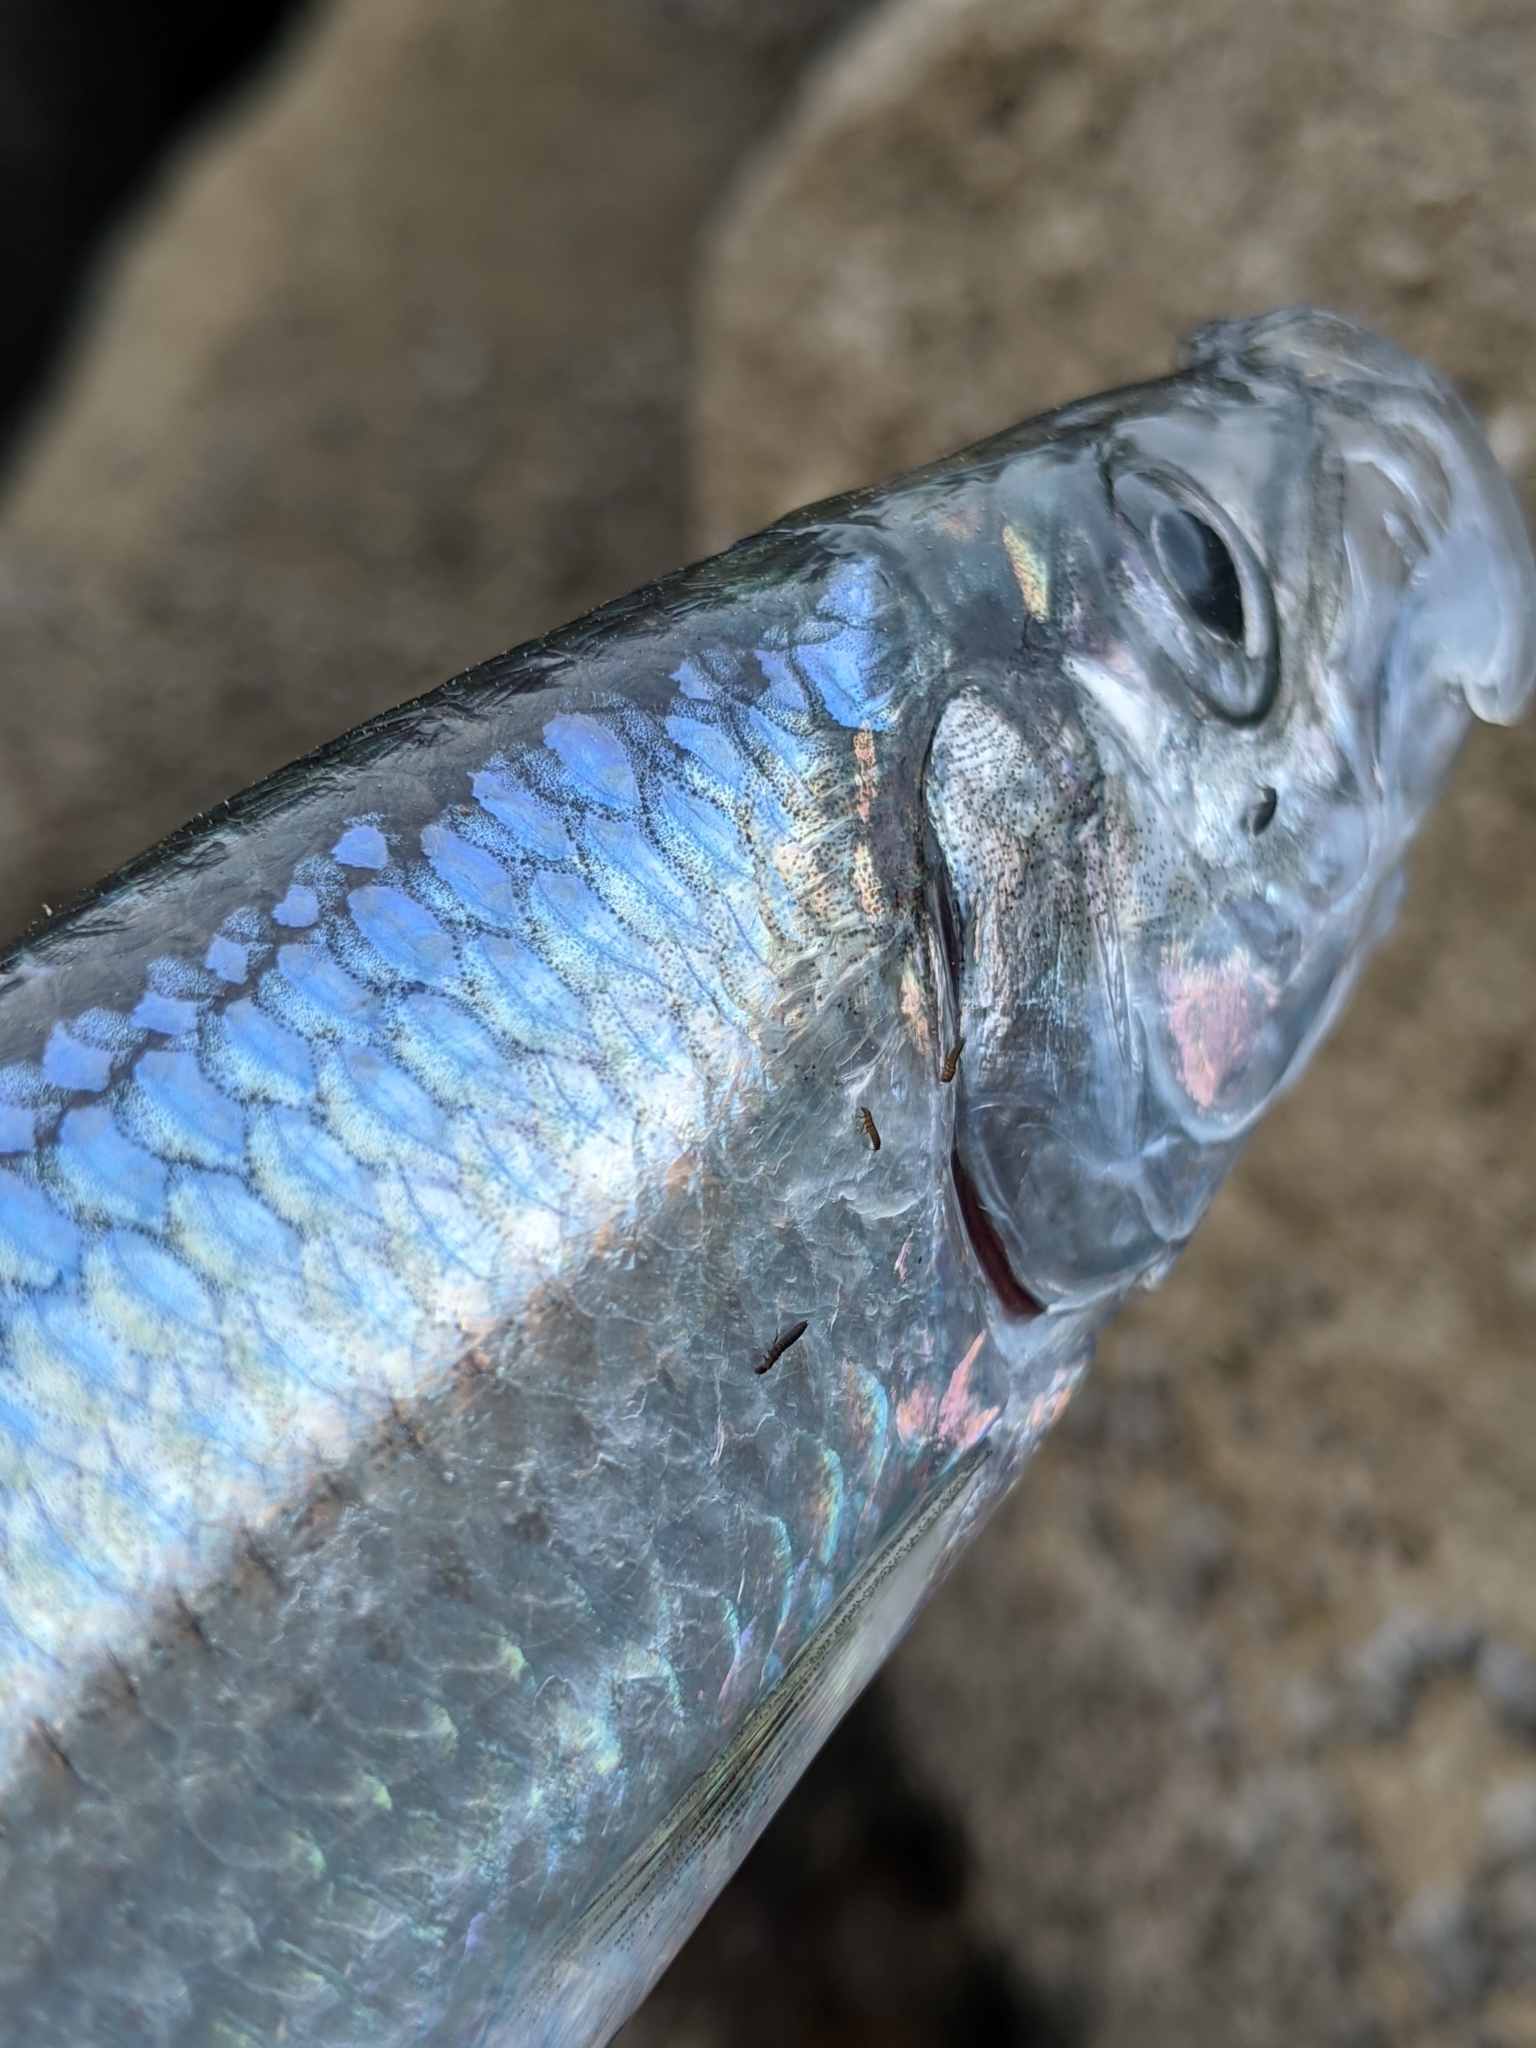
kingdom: Animalia
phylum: Chordata
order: Clupeiformes
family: Clupeidae
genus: Clupea
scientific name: Clupea pallasii
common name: Pacific herring
